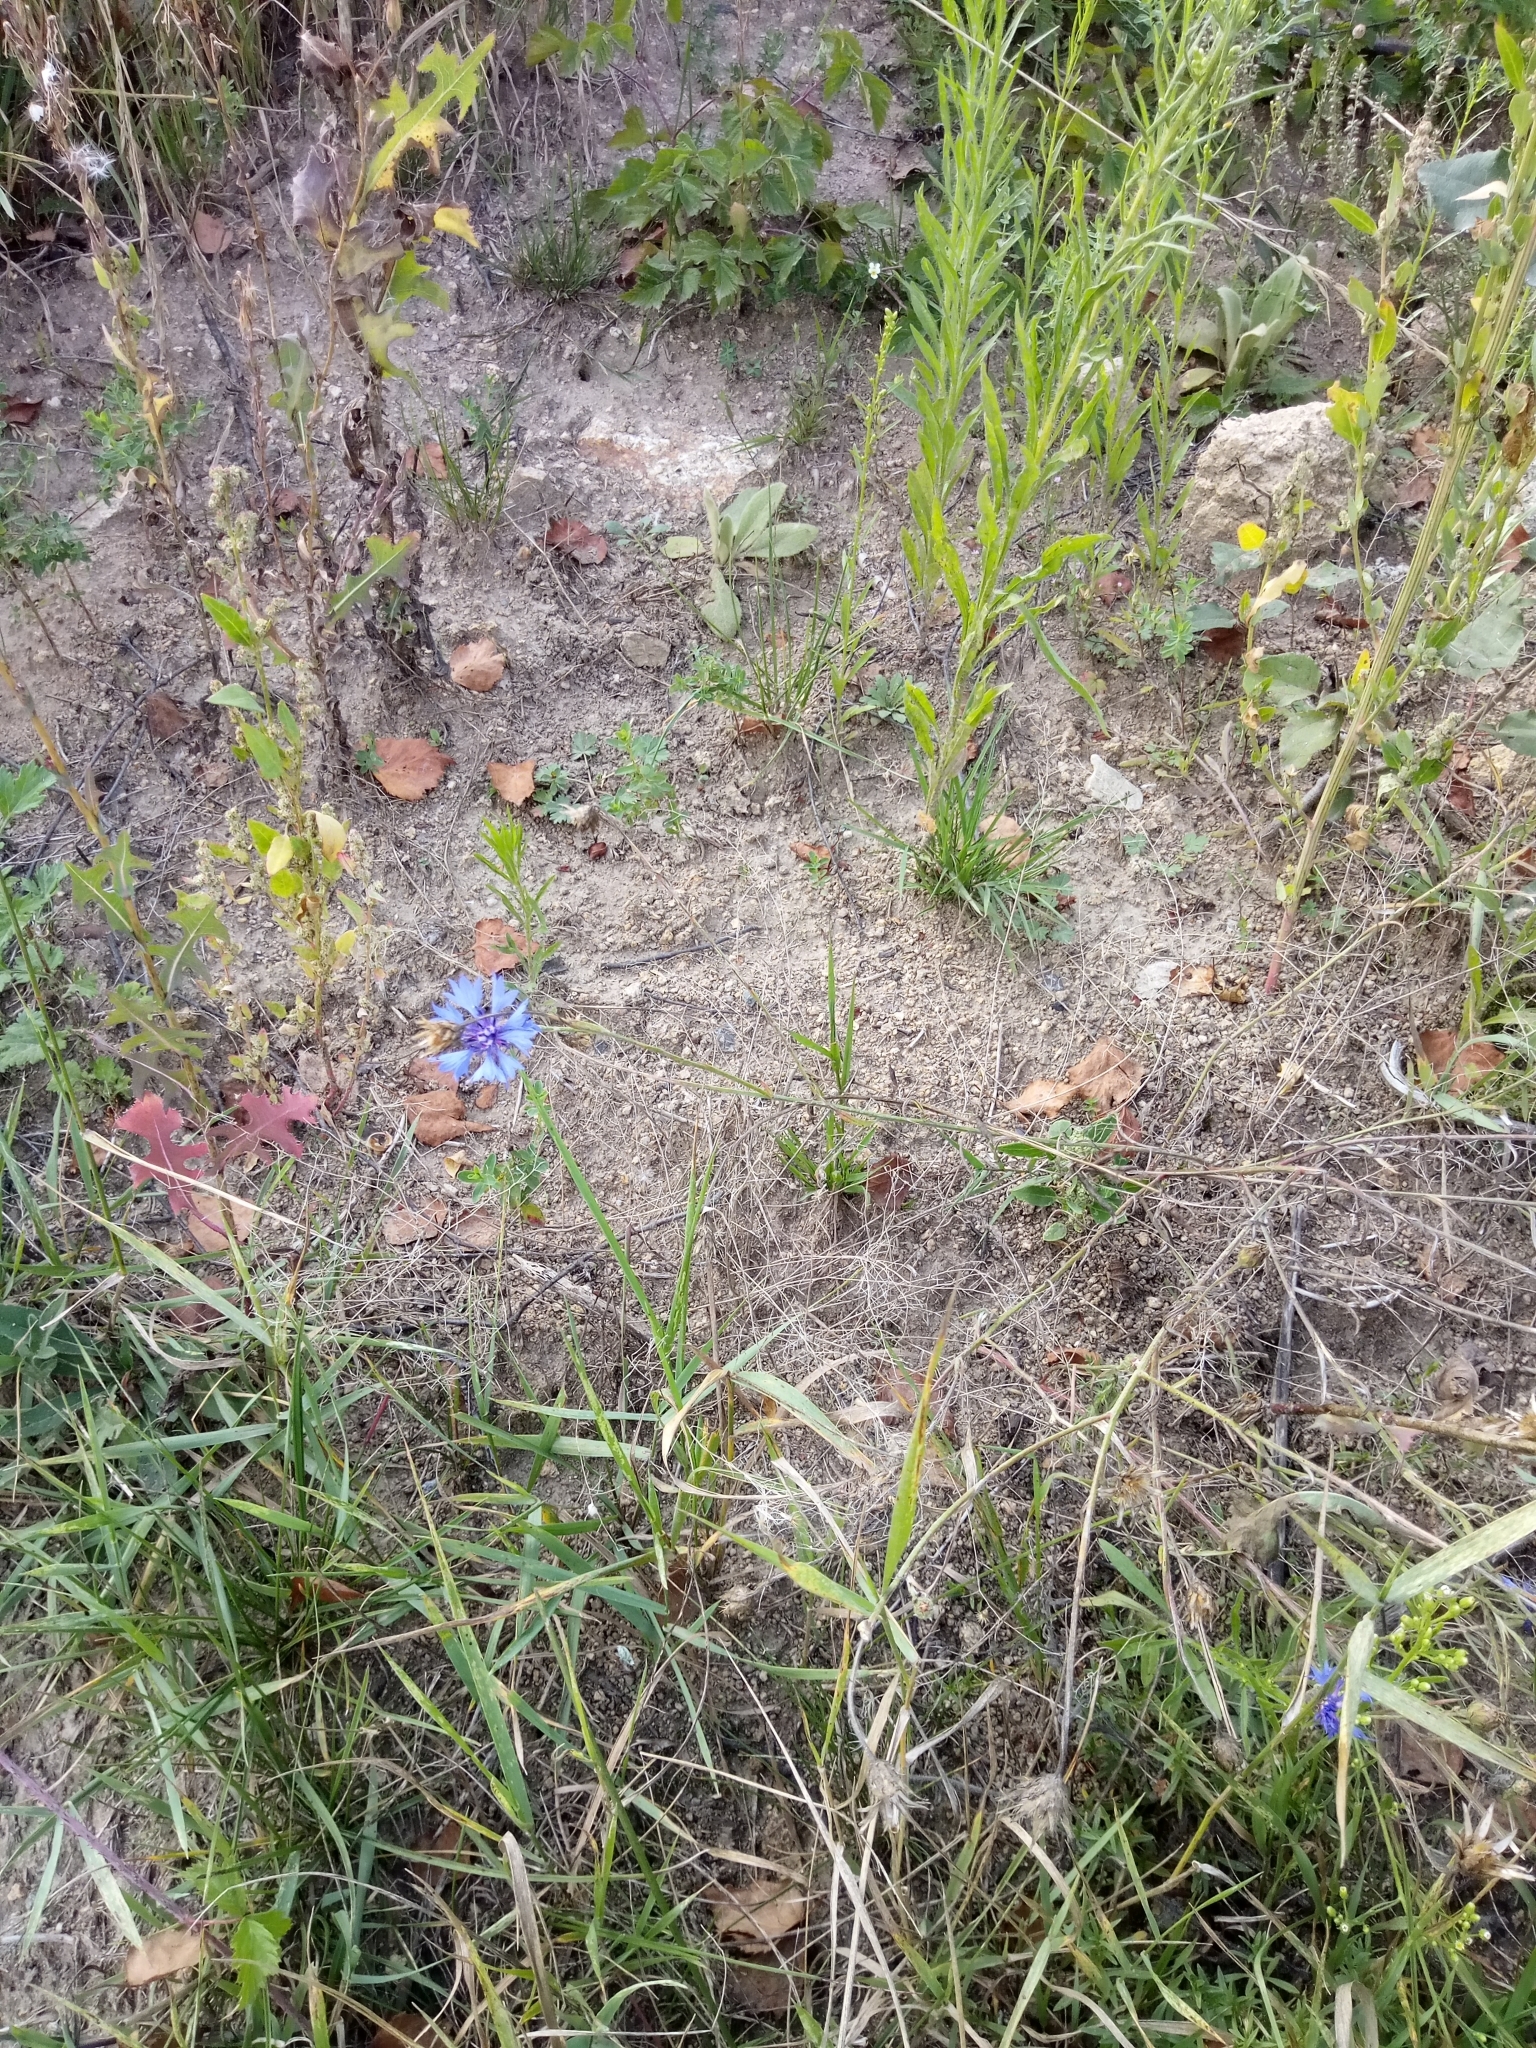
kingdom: Plantae
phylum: Tracheophyta
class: Magnoliopsida
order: Asterales
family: Asteraceae
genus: Centaurea
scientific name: Centaurea cyanus
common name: Cornflower
